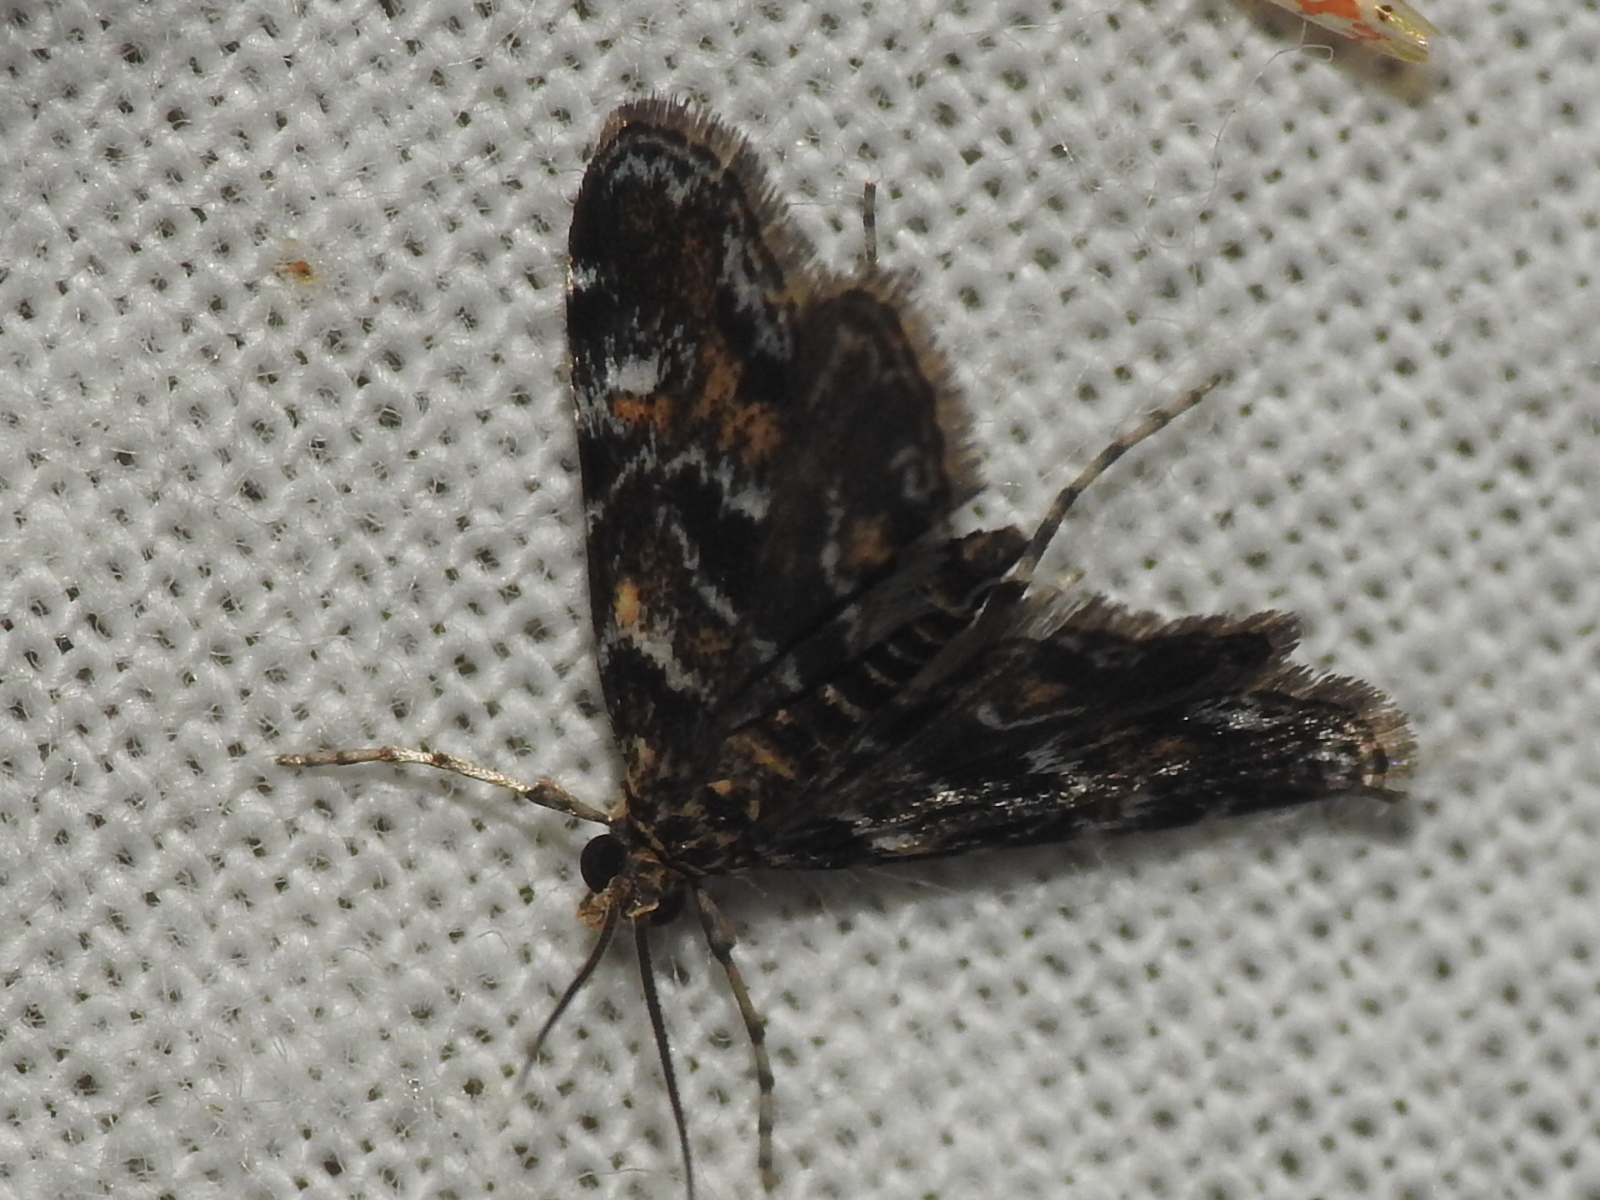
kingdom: Animalia
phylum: Arthropoda
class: Insecta
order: Lepidoptera
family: Crambidae
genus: Elophila
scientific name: Elophila obliteralis
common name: Waterlily leafcutter moth
